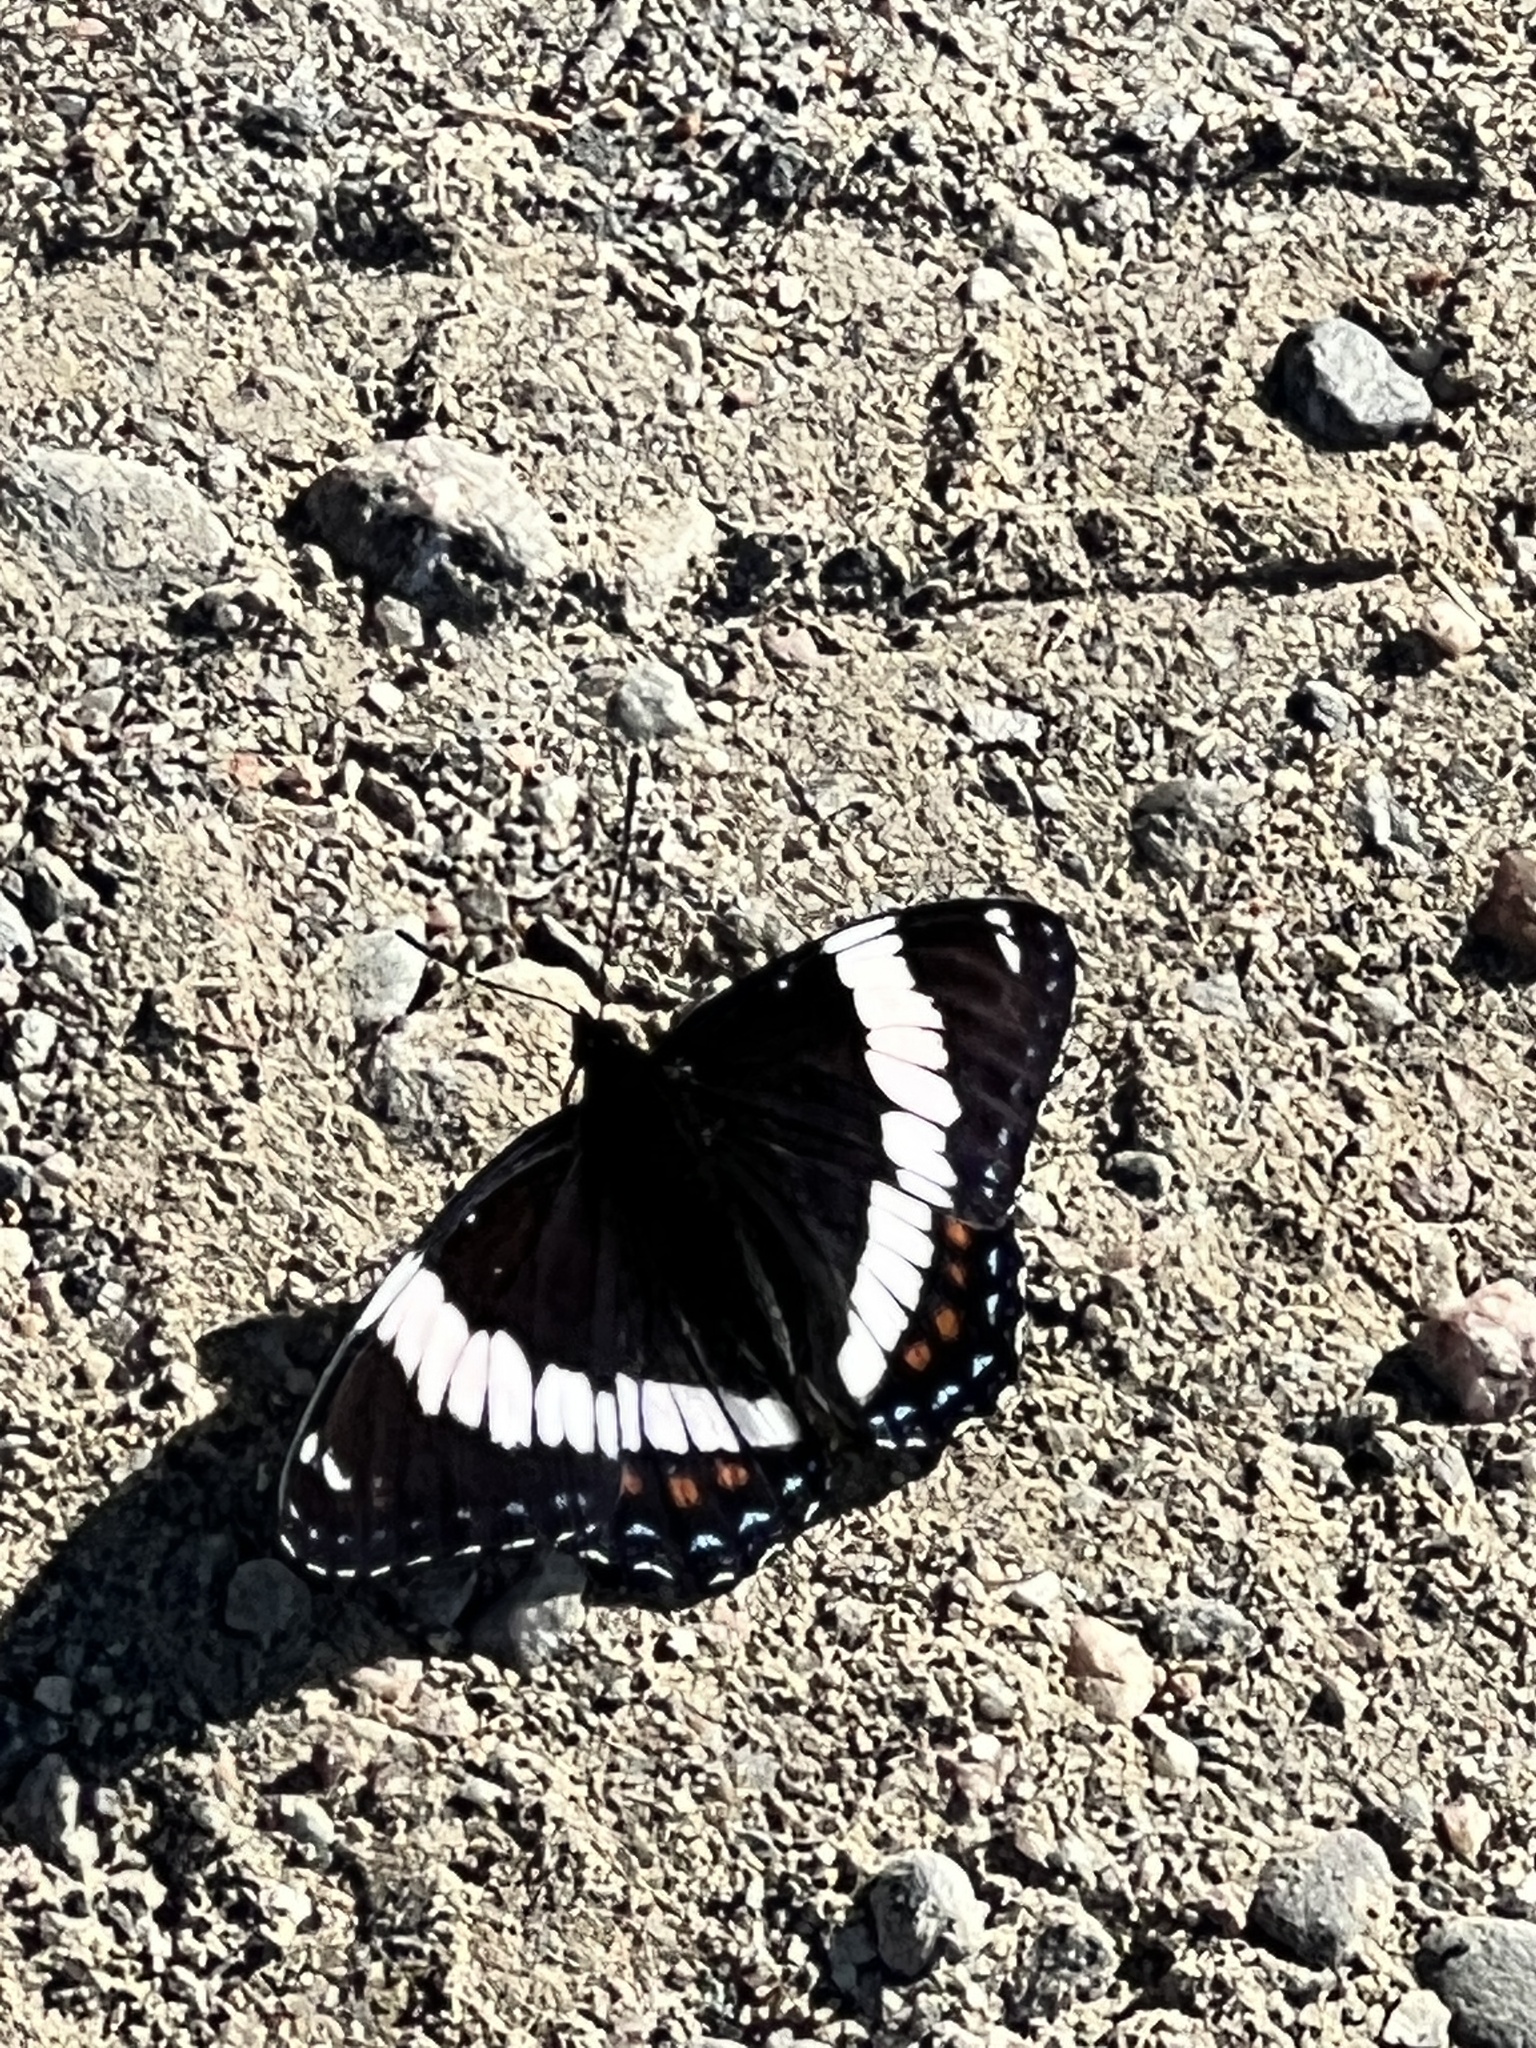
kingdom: Animalia
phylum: Arthropoda
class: Insecta
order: Lepidoptera
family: Nymphalidae
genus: Limenitis
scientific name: Limenitis arthemis
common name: Red-spotted admiral
